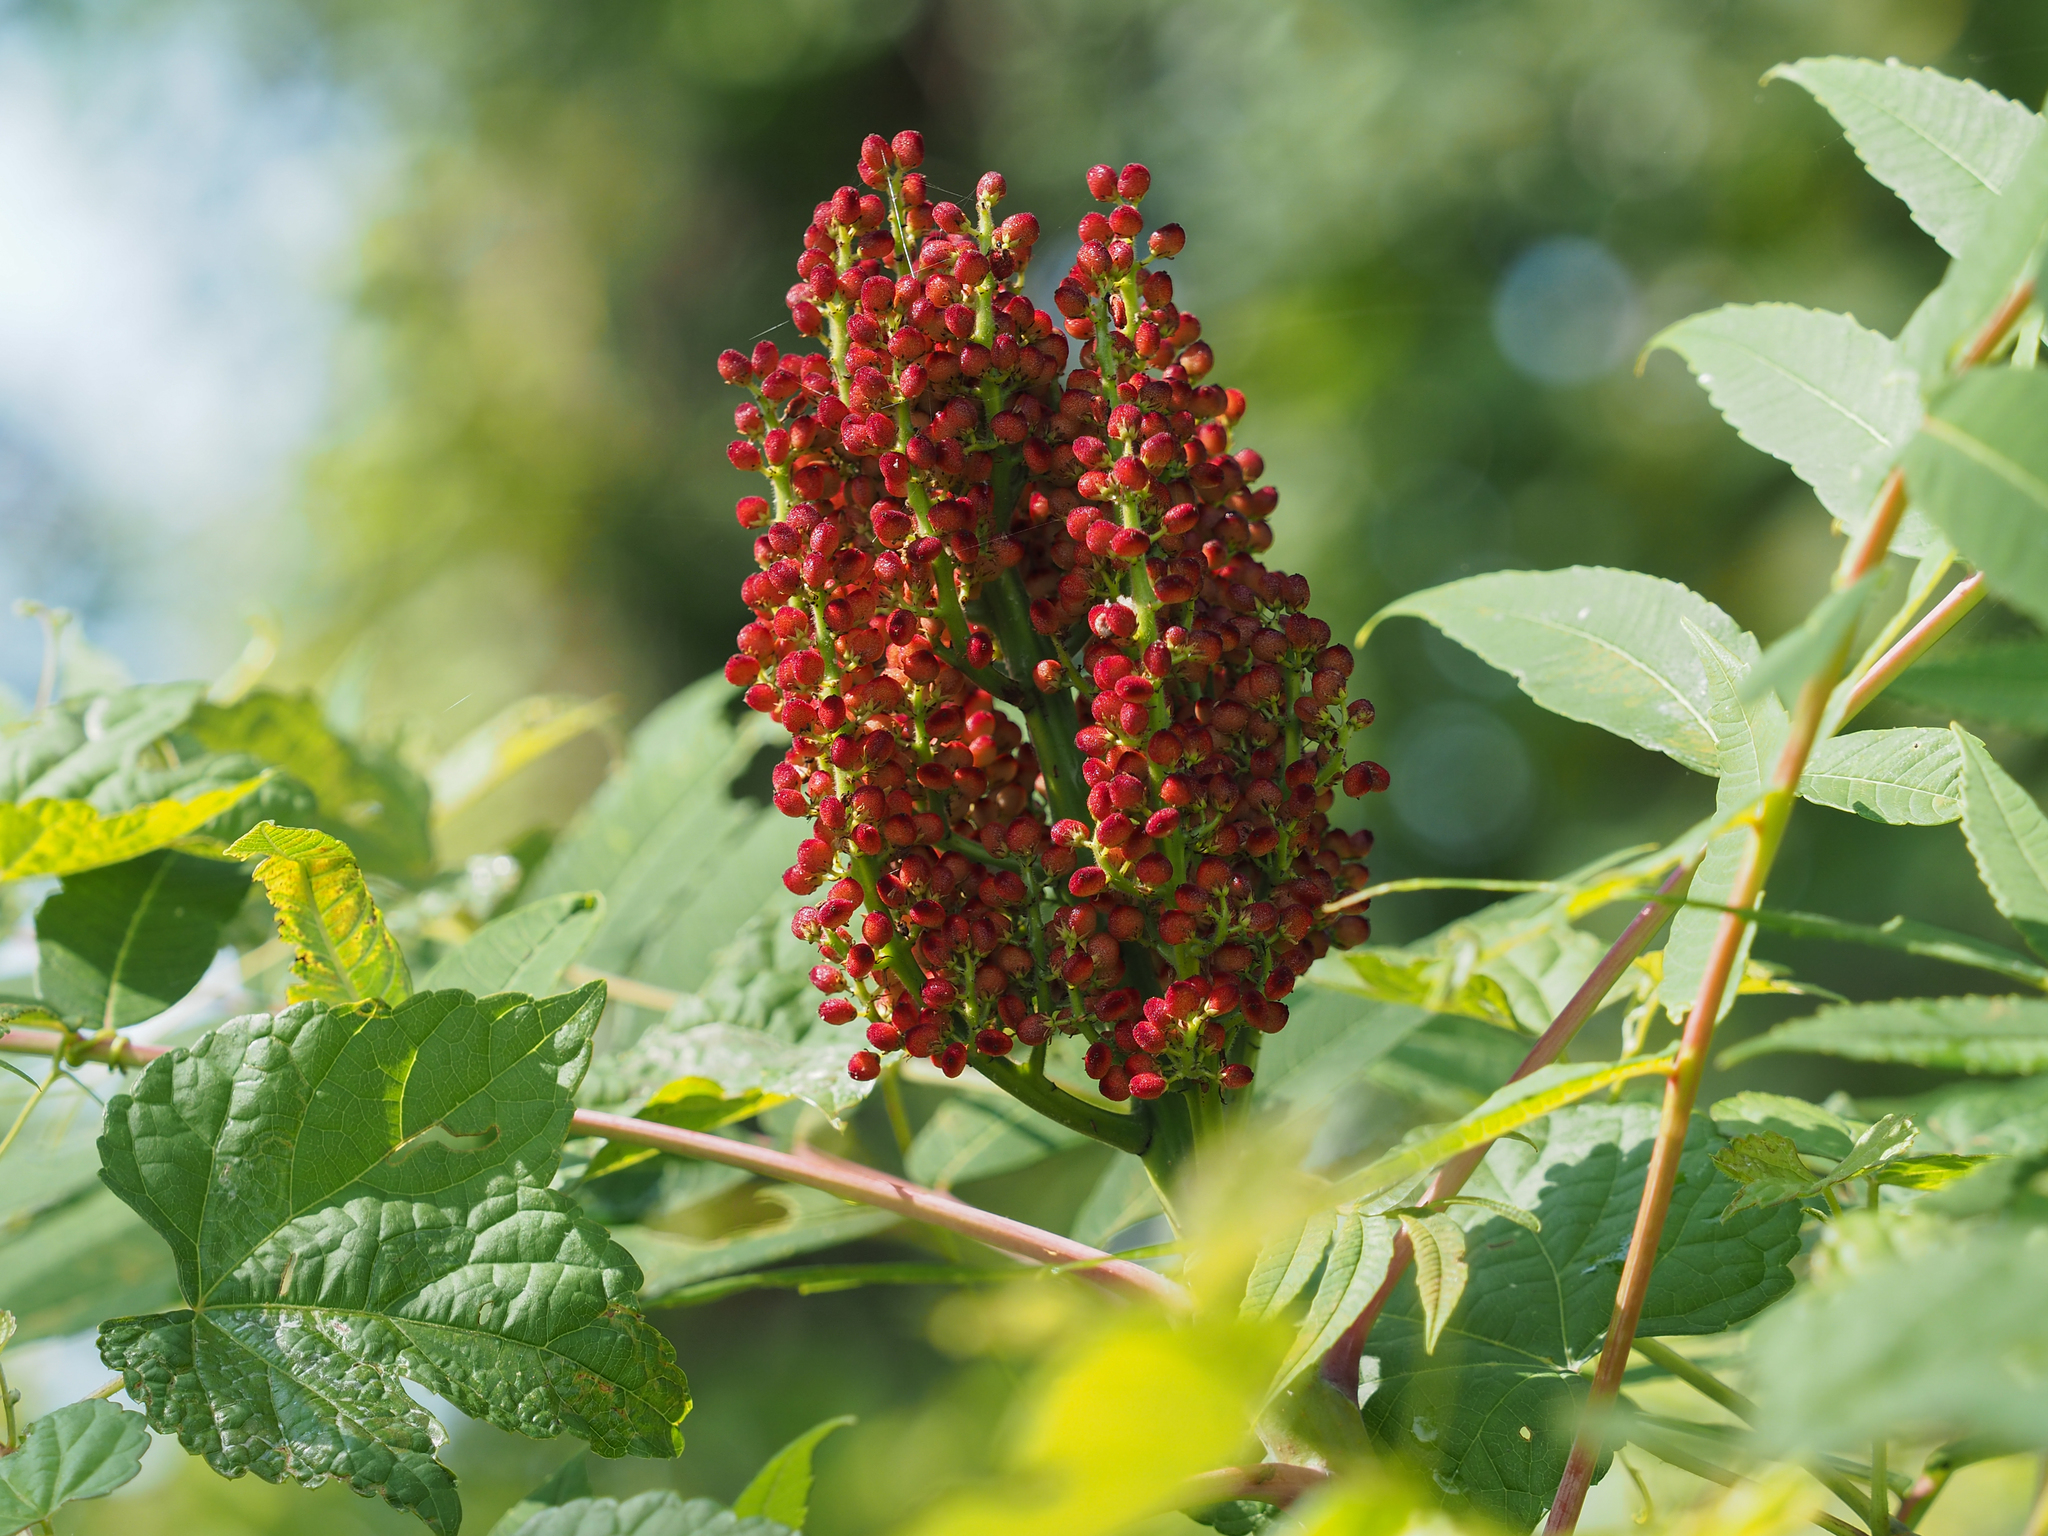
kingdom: Plantae
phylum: Tracheophyta
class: Magnoliopsida
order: Sapindales
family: Anacardiaceae
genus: Rhus
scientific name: Rhus glabra
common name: Scarlet sumac
